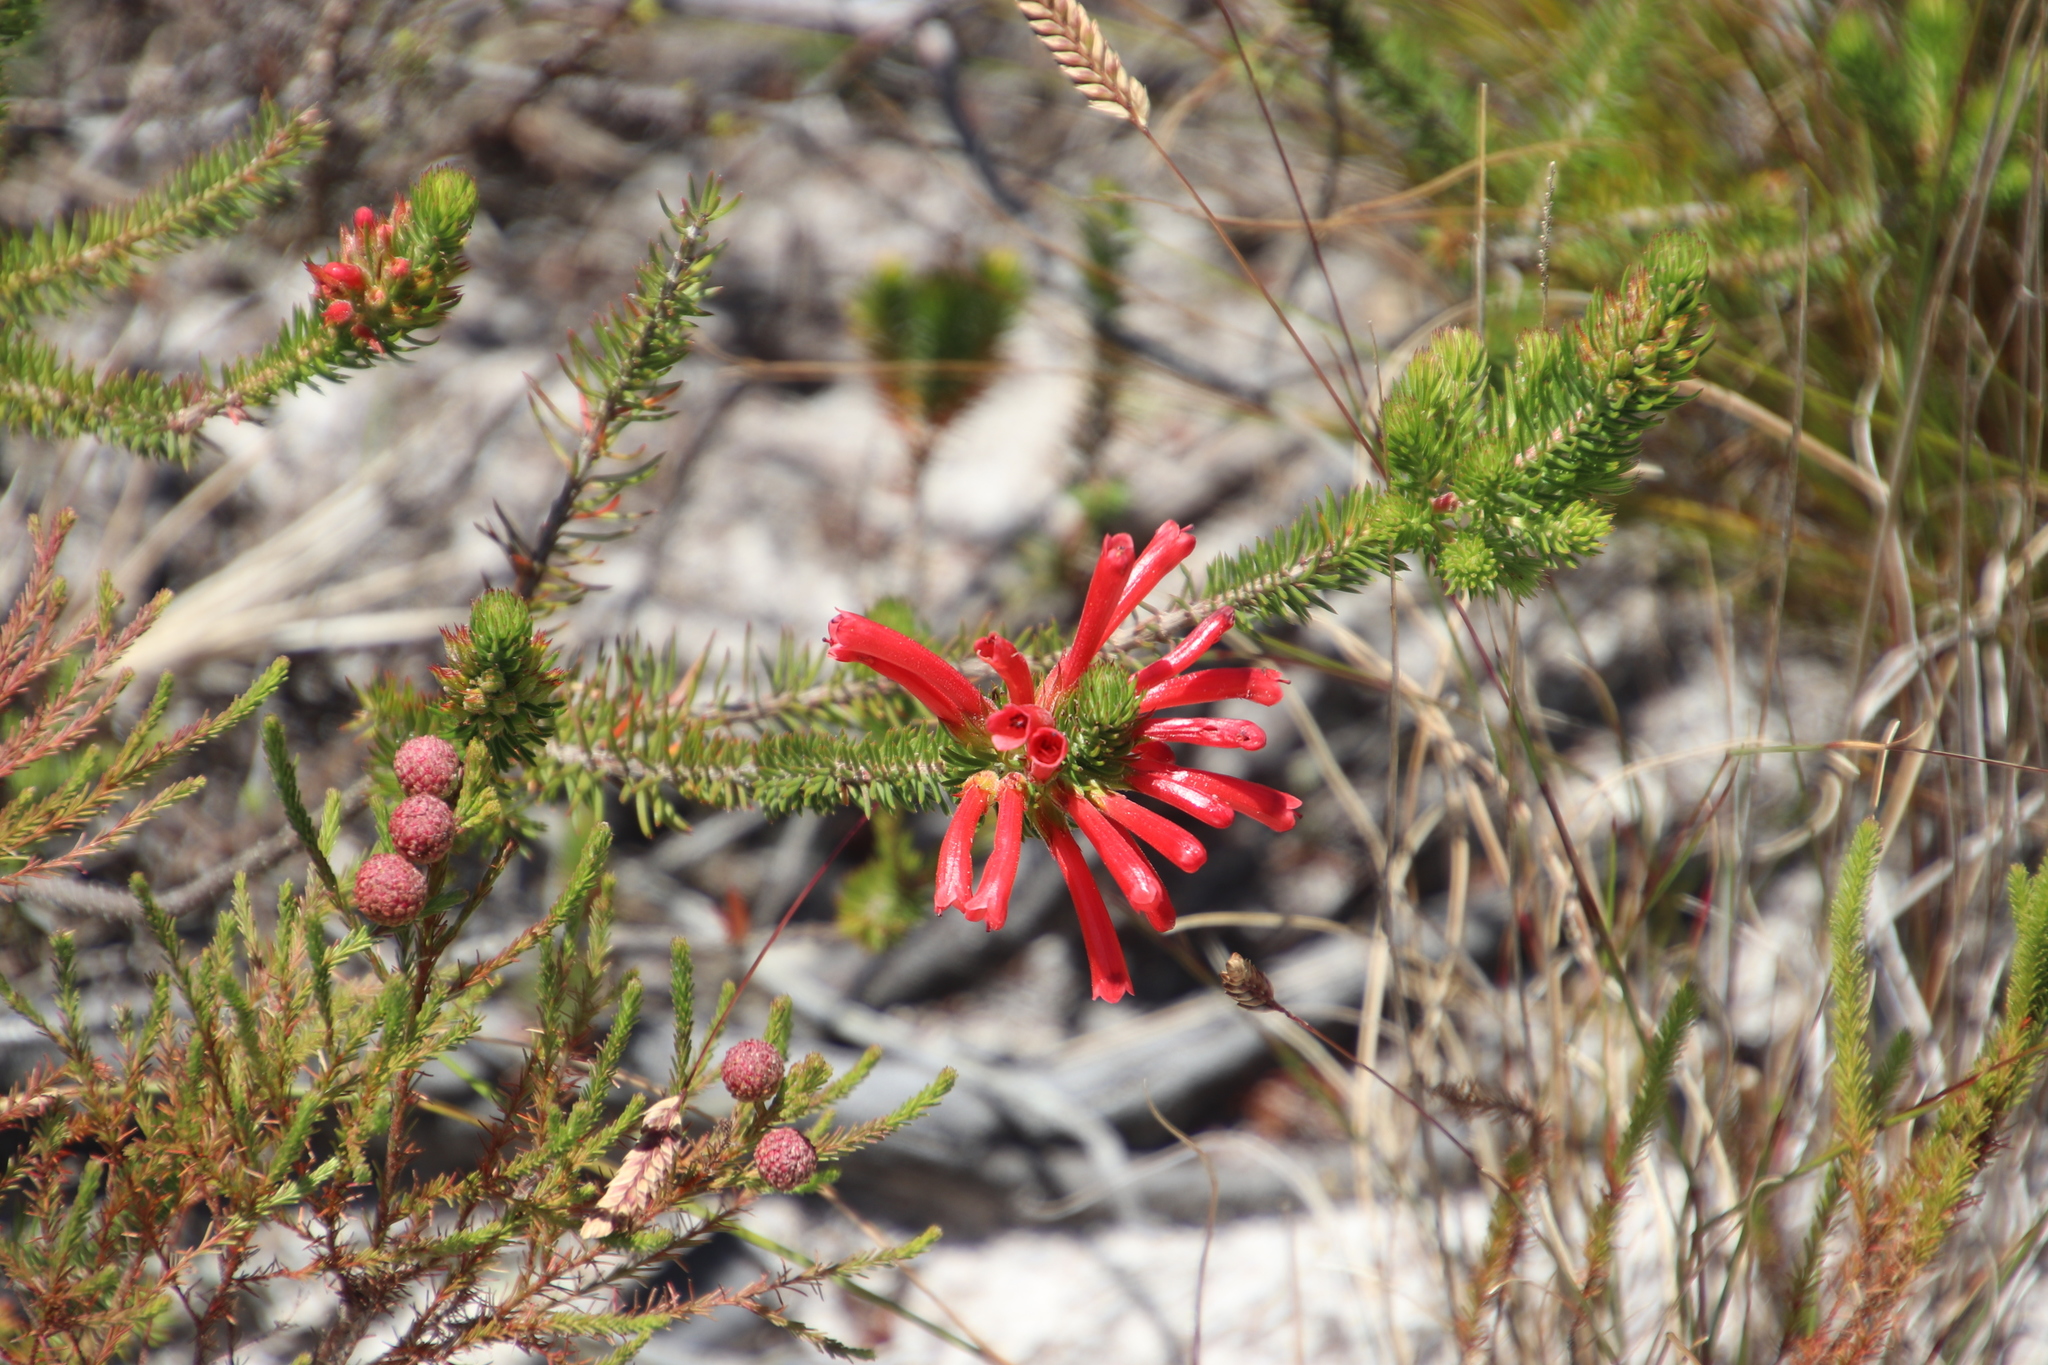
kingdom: Plantae
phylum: Tracheophyta
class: Magnoliopsida
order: Ericales
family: Ericaceae
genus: Erica
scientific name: Erica abietina
